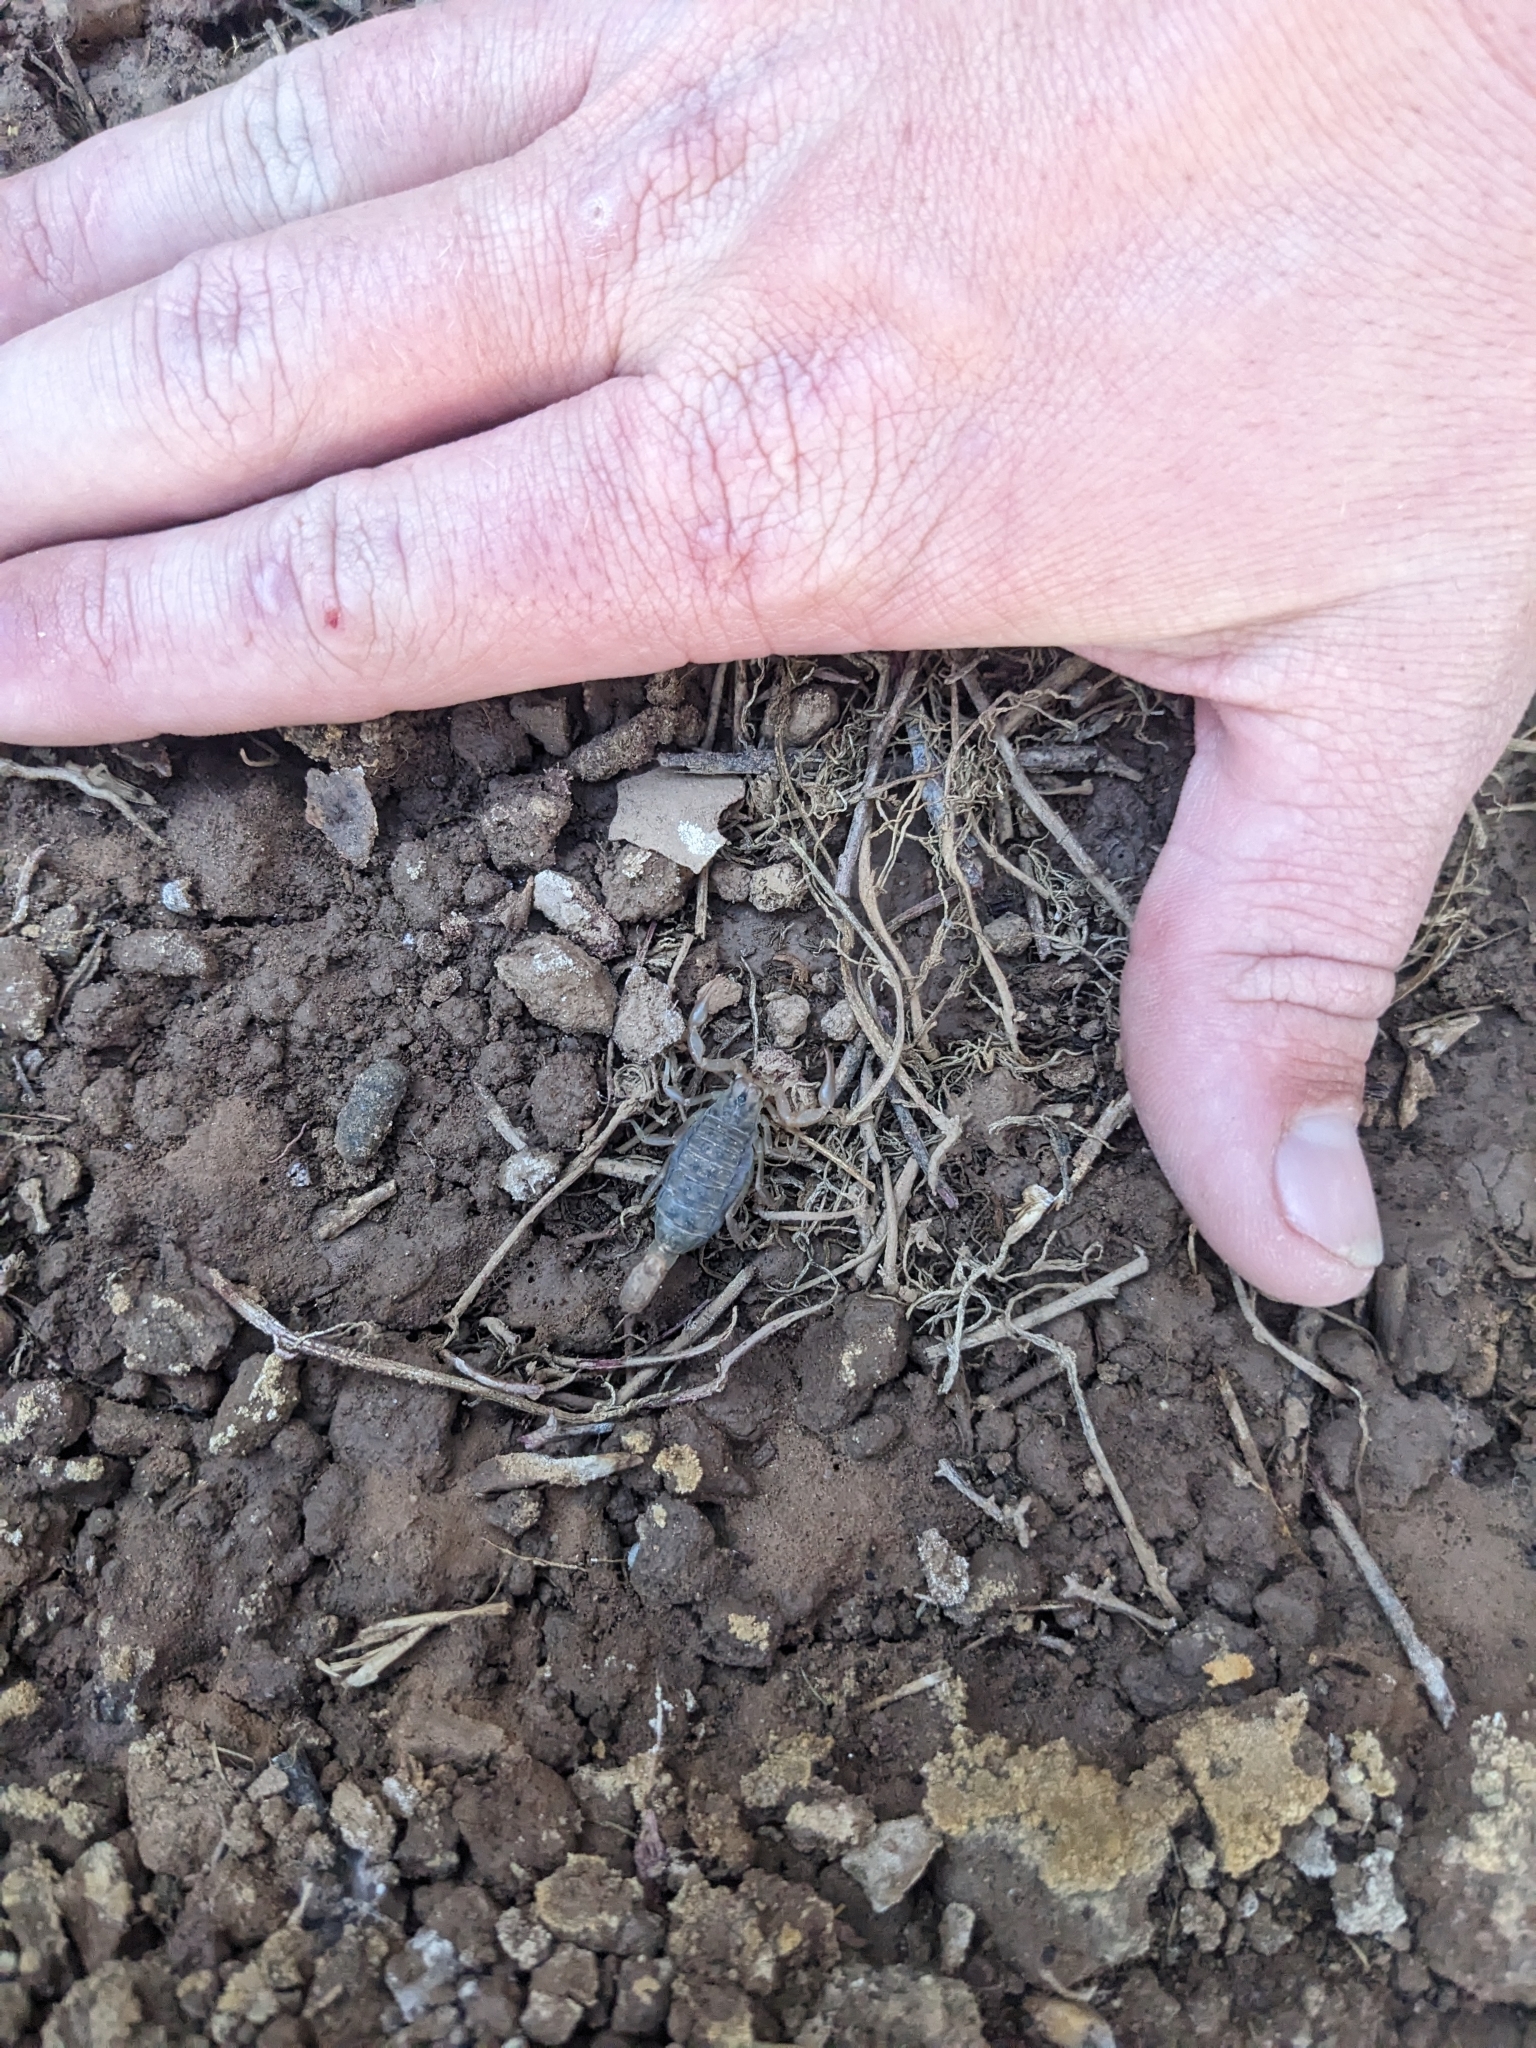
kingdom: Animalia
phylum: Arthropoda
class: Arachnida
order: Scorpiones
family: Vaejovidae
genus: Paravaejovis
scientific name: Paravaejovis spinigerus
